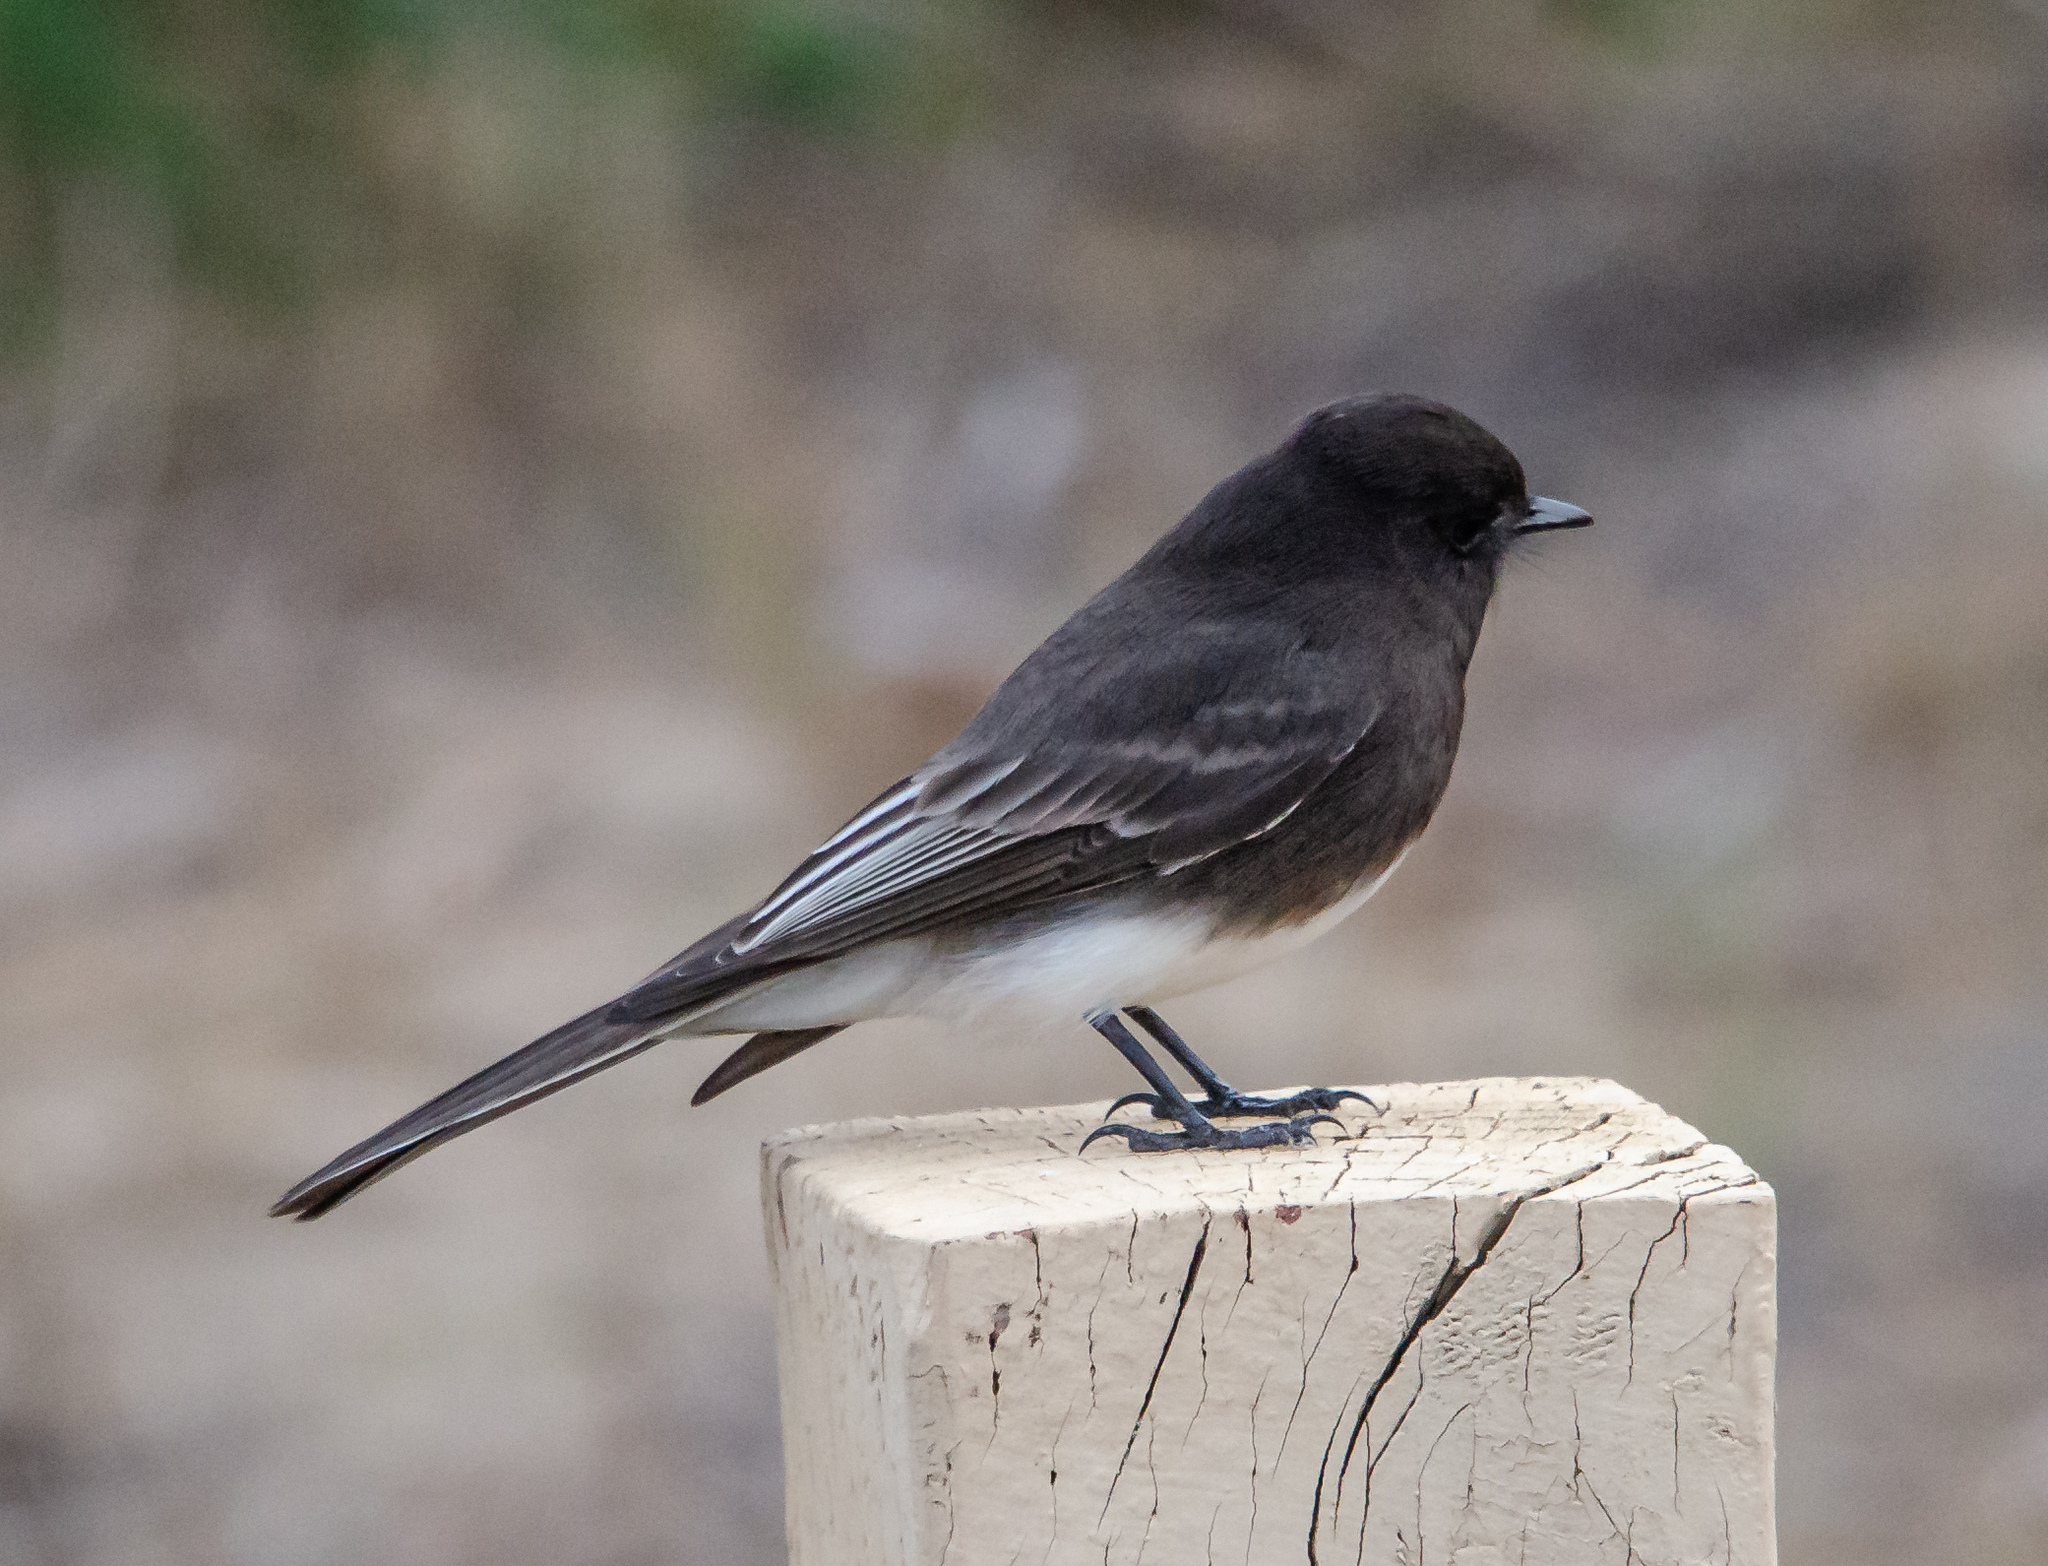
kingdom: Animalia
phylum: Chordata
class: Aves
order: Passeriformes
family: Tyrannidae
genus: Sayornis
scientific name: Sayornis nigricans
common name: Black phoebe
